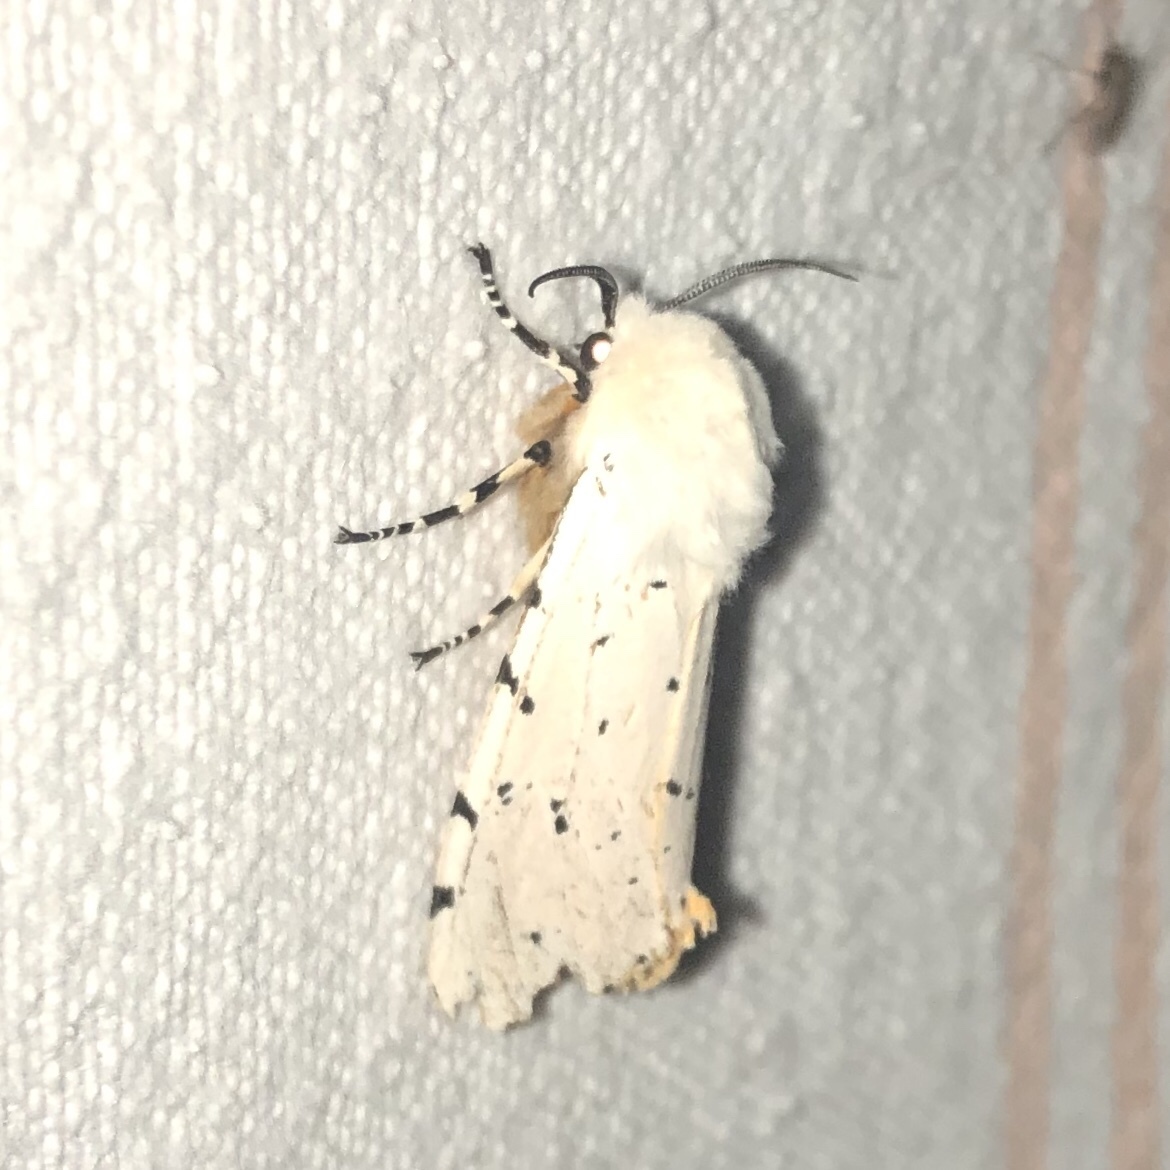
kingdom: Animalia
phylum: Arthropoda
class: Insecta
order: Lepidoptera
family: Erebidae
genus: Estigmene
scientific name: Estigmene acrea
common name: Salt marsh moth
